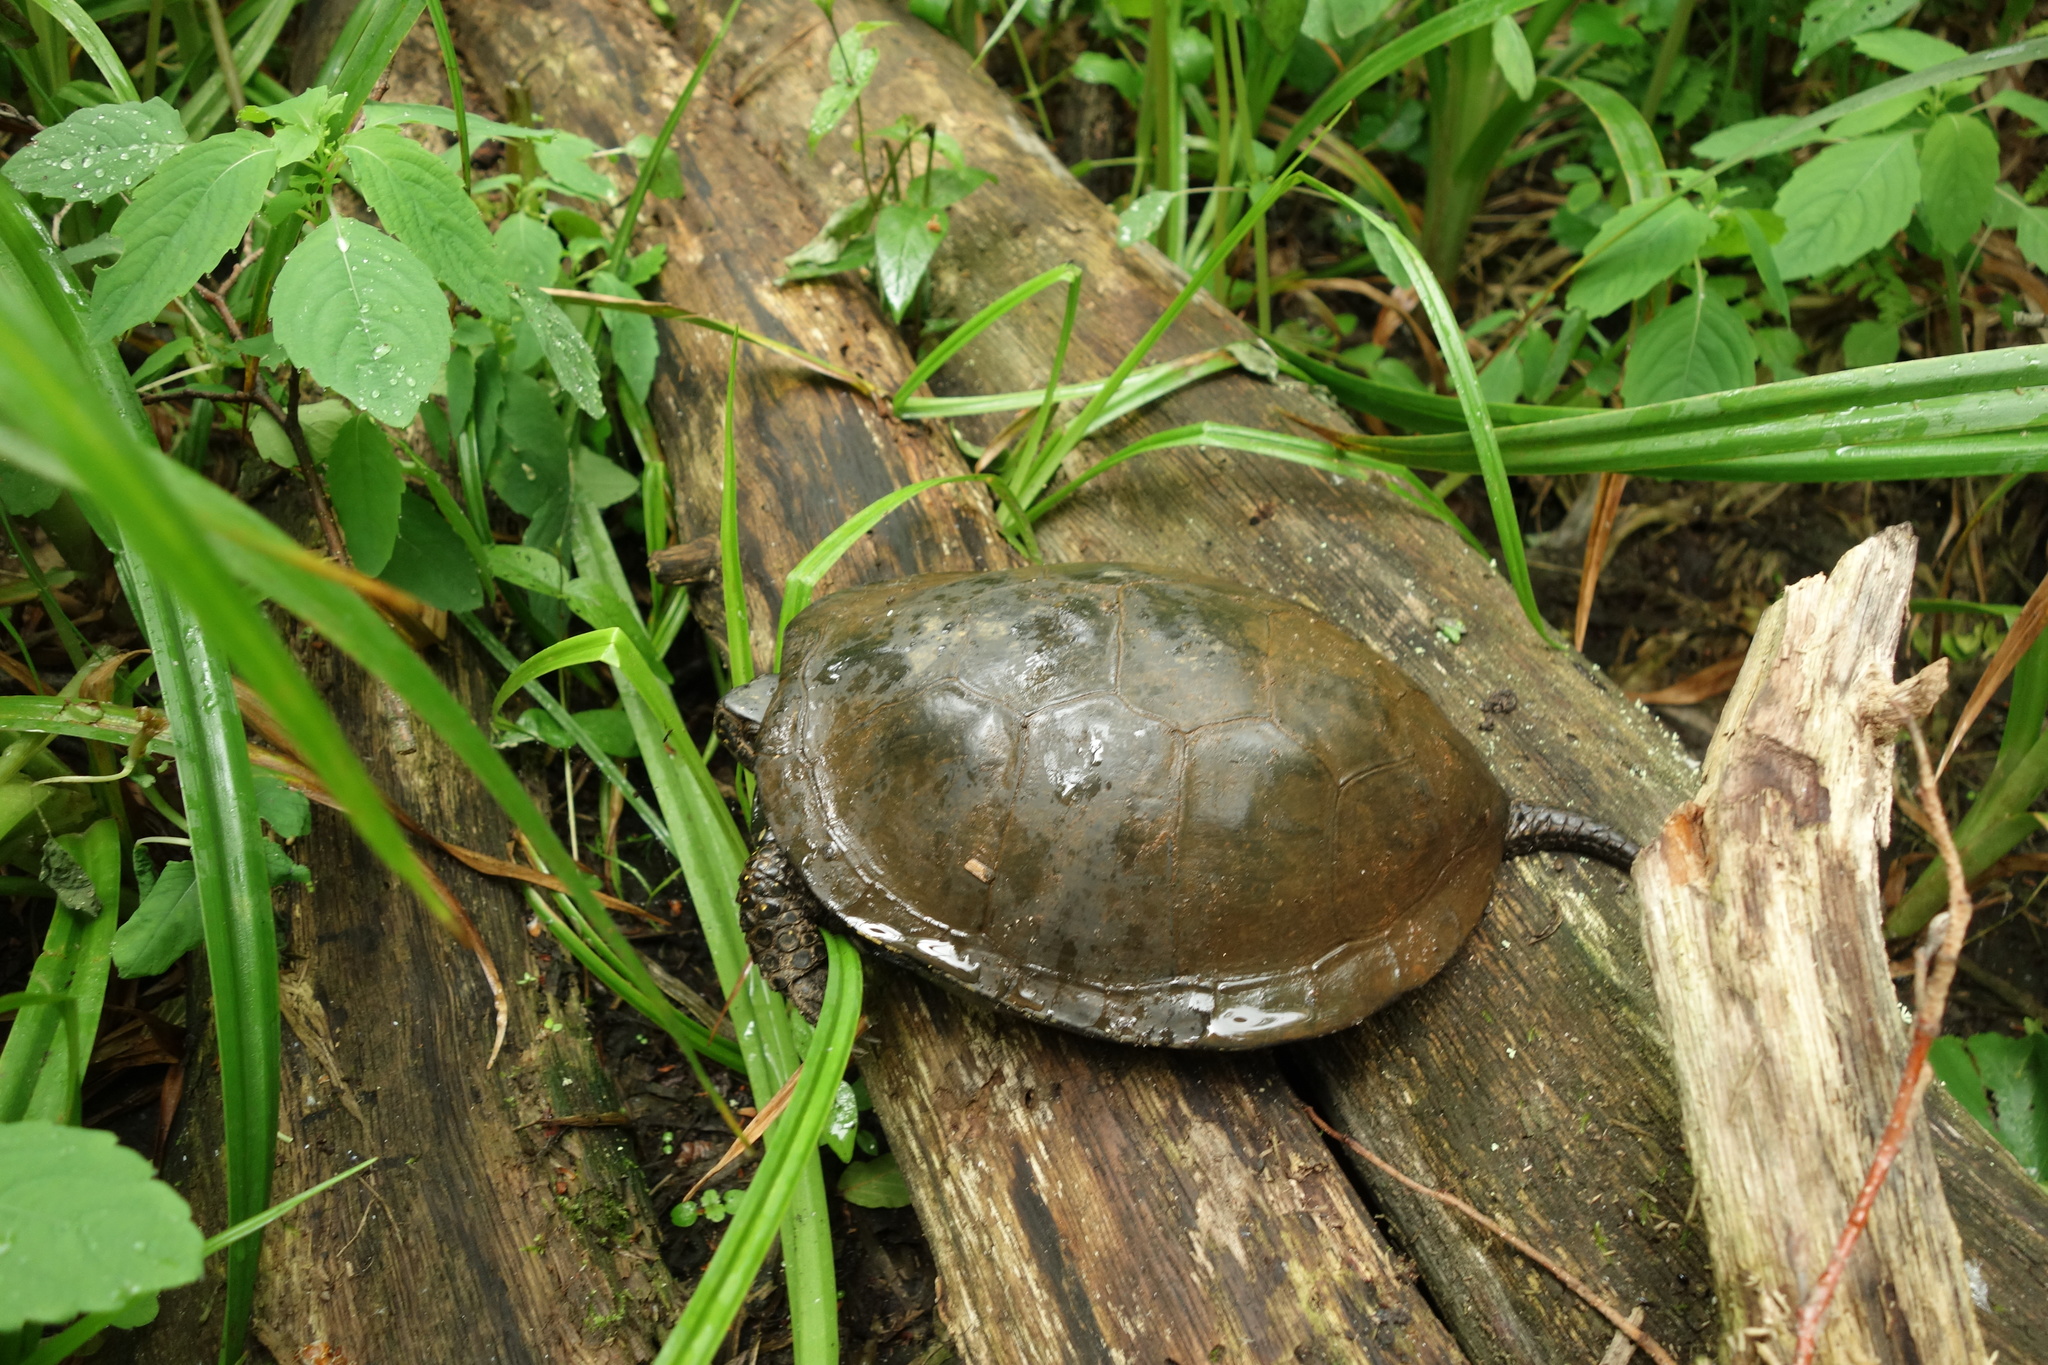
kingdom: Animalia
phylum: Chordata
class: Testudines
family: Emydidae
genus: Emys
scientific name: Emys orbicularis
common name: European pond turtle
